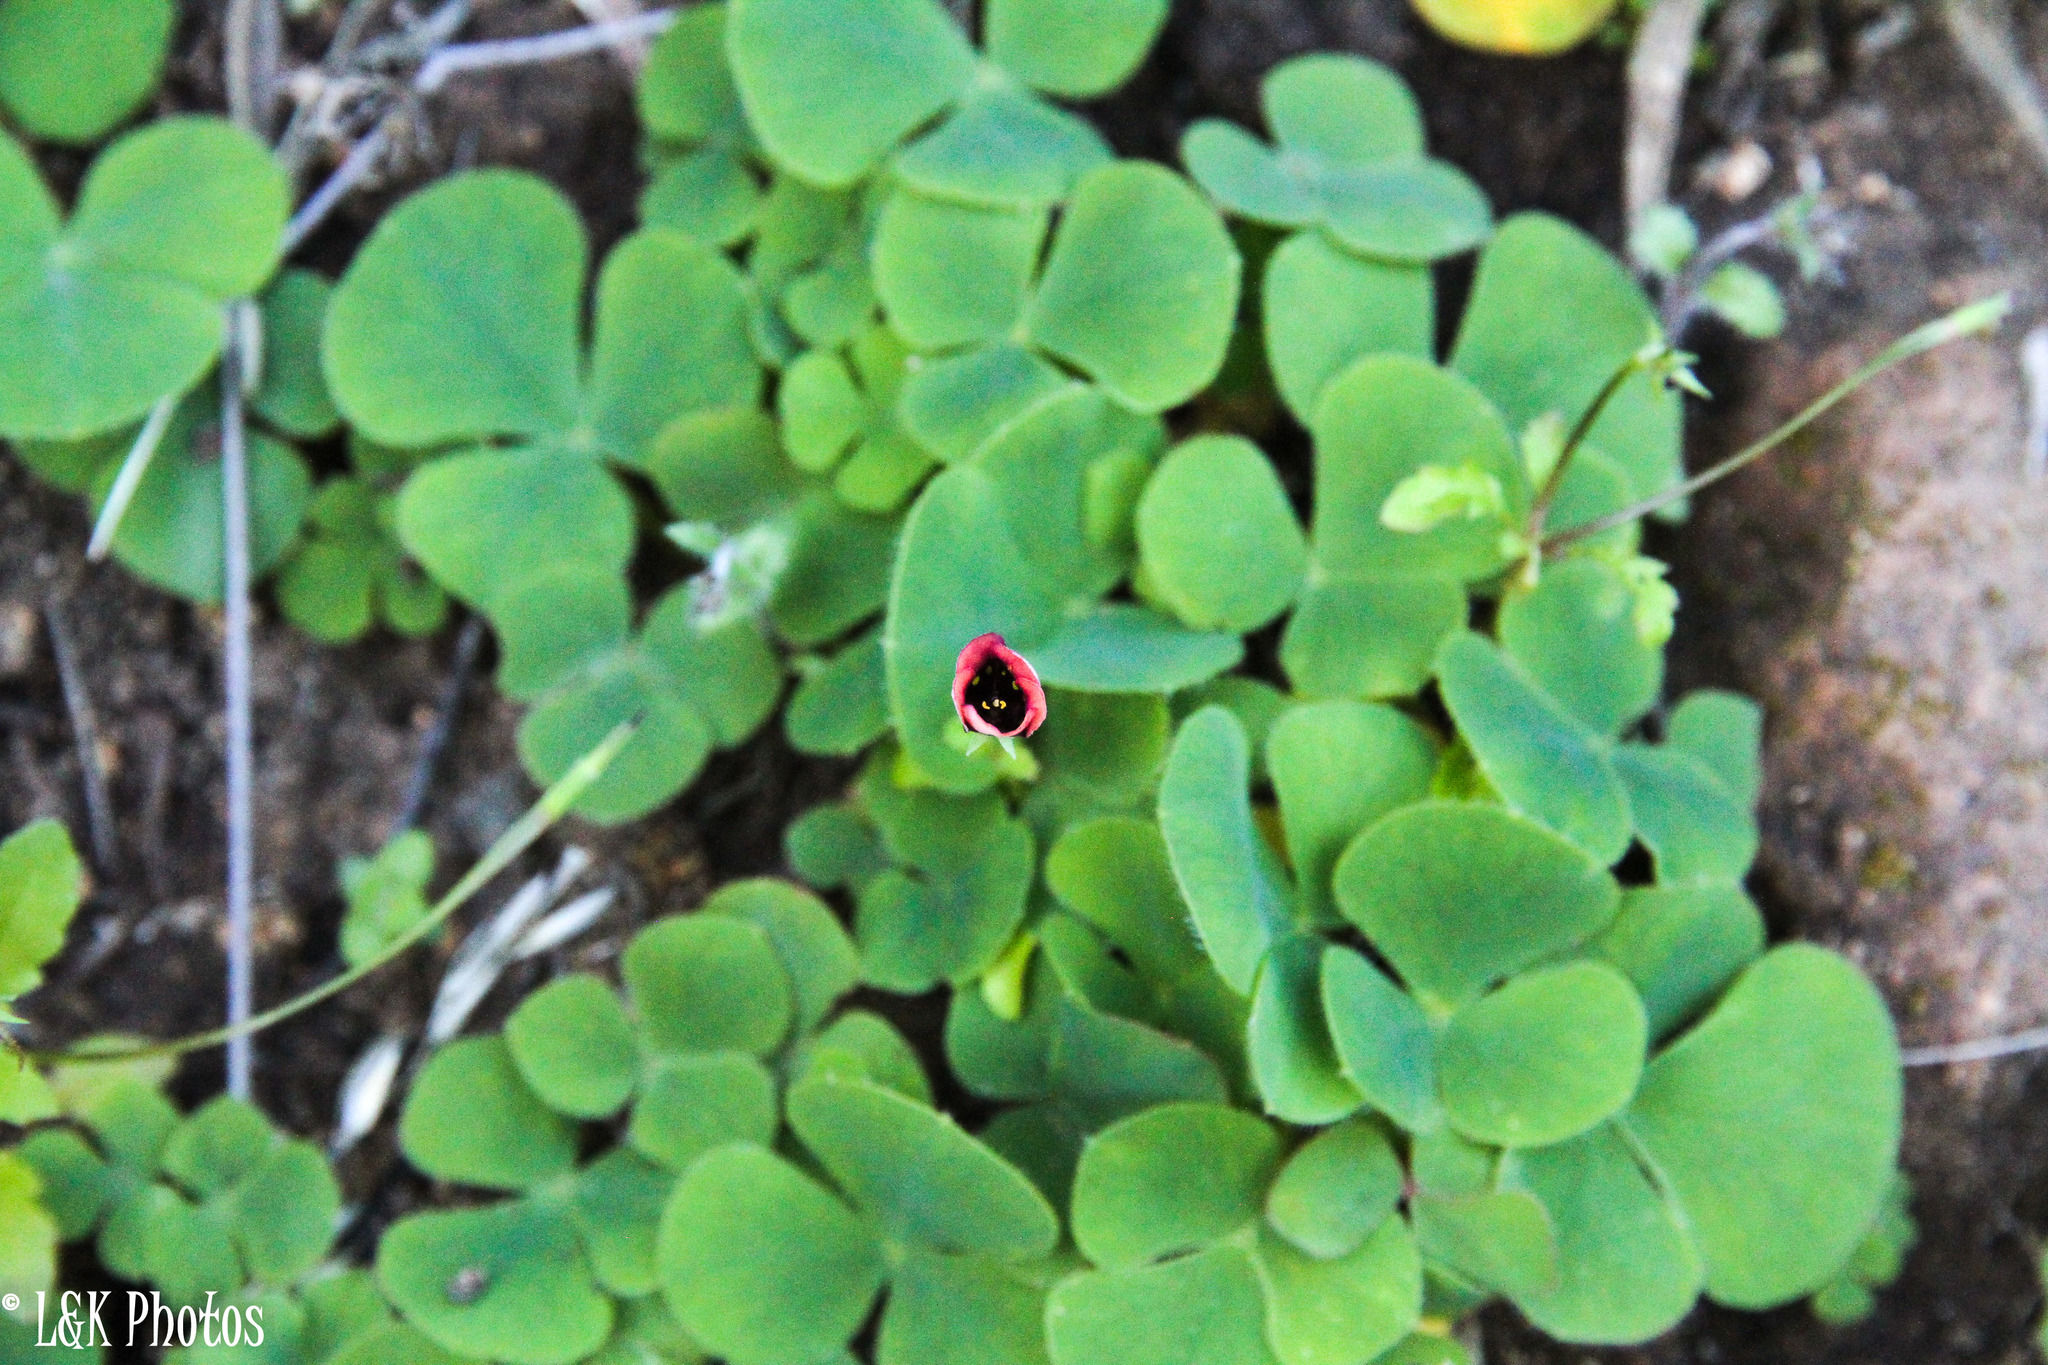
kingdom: Plantae
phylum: Tracheophyta
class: Magnoliopsida
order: Oxalidales
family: Oxalidaceae
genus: Oxalis
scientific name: Oxalis purpurea
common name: Purple woodsorrel
